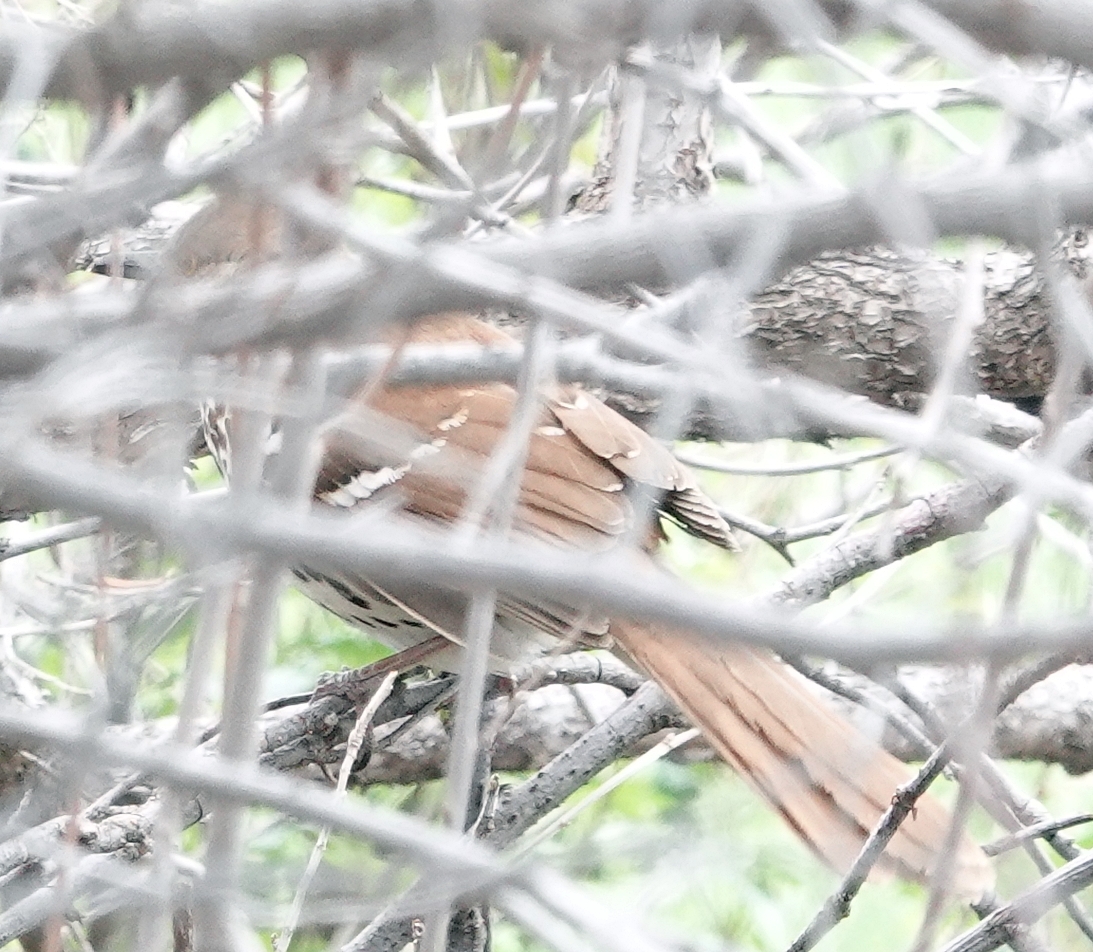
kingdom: Animalia
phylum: Chordata
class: Aves
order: Passeriformes
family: Mimidae
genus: Toxostoma
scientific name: Toxostoma rufum
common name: Brown thrasher
